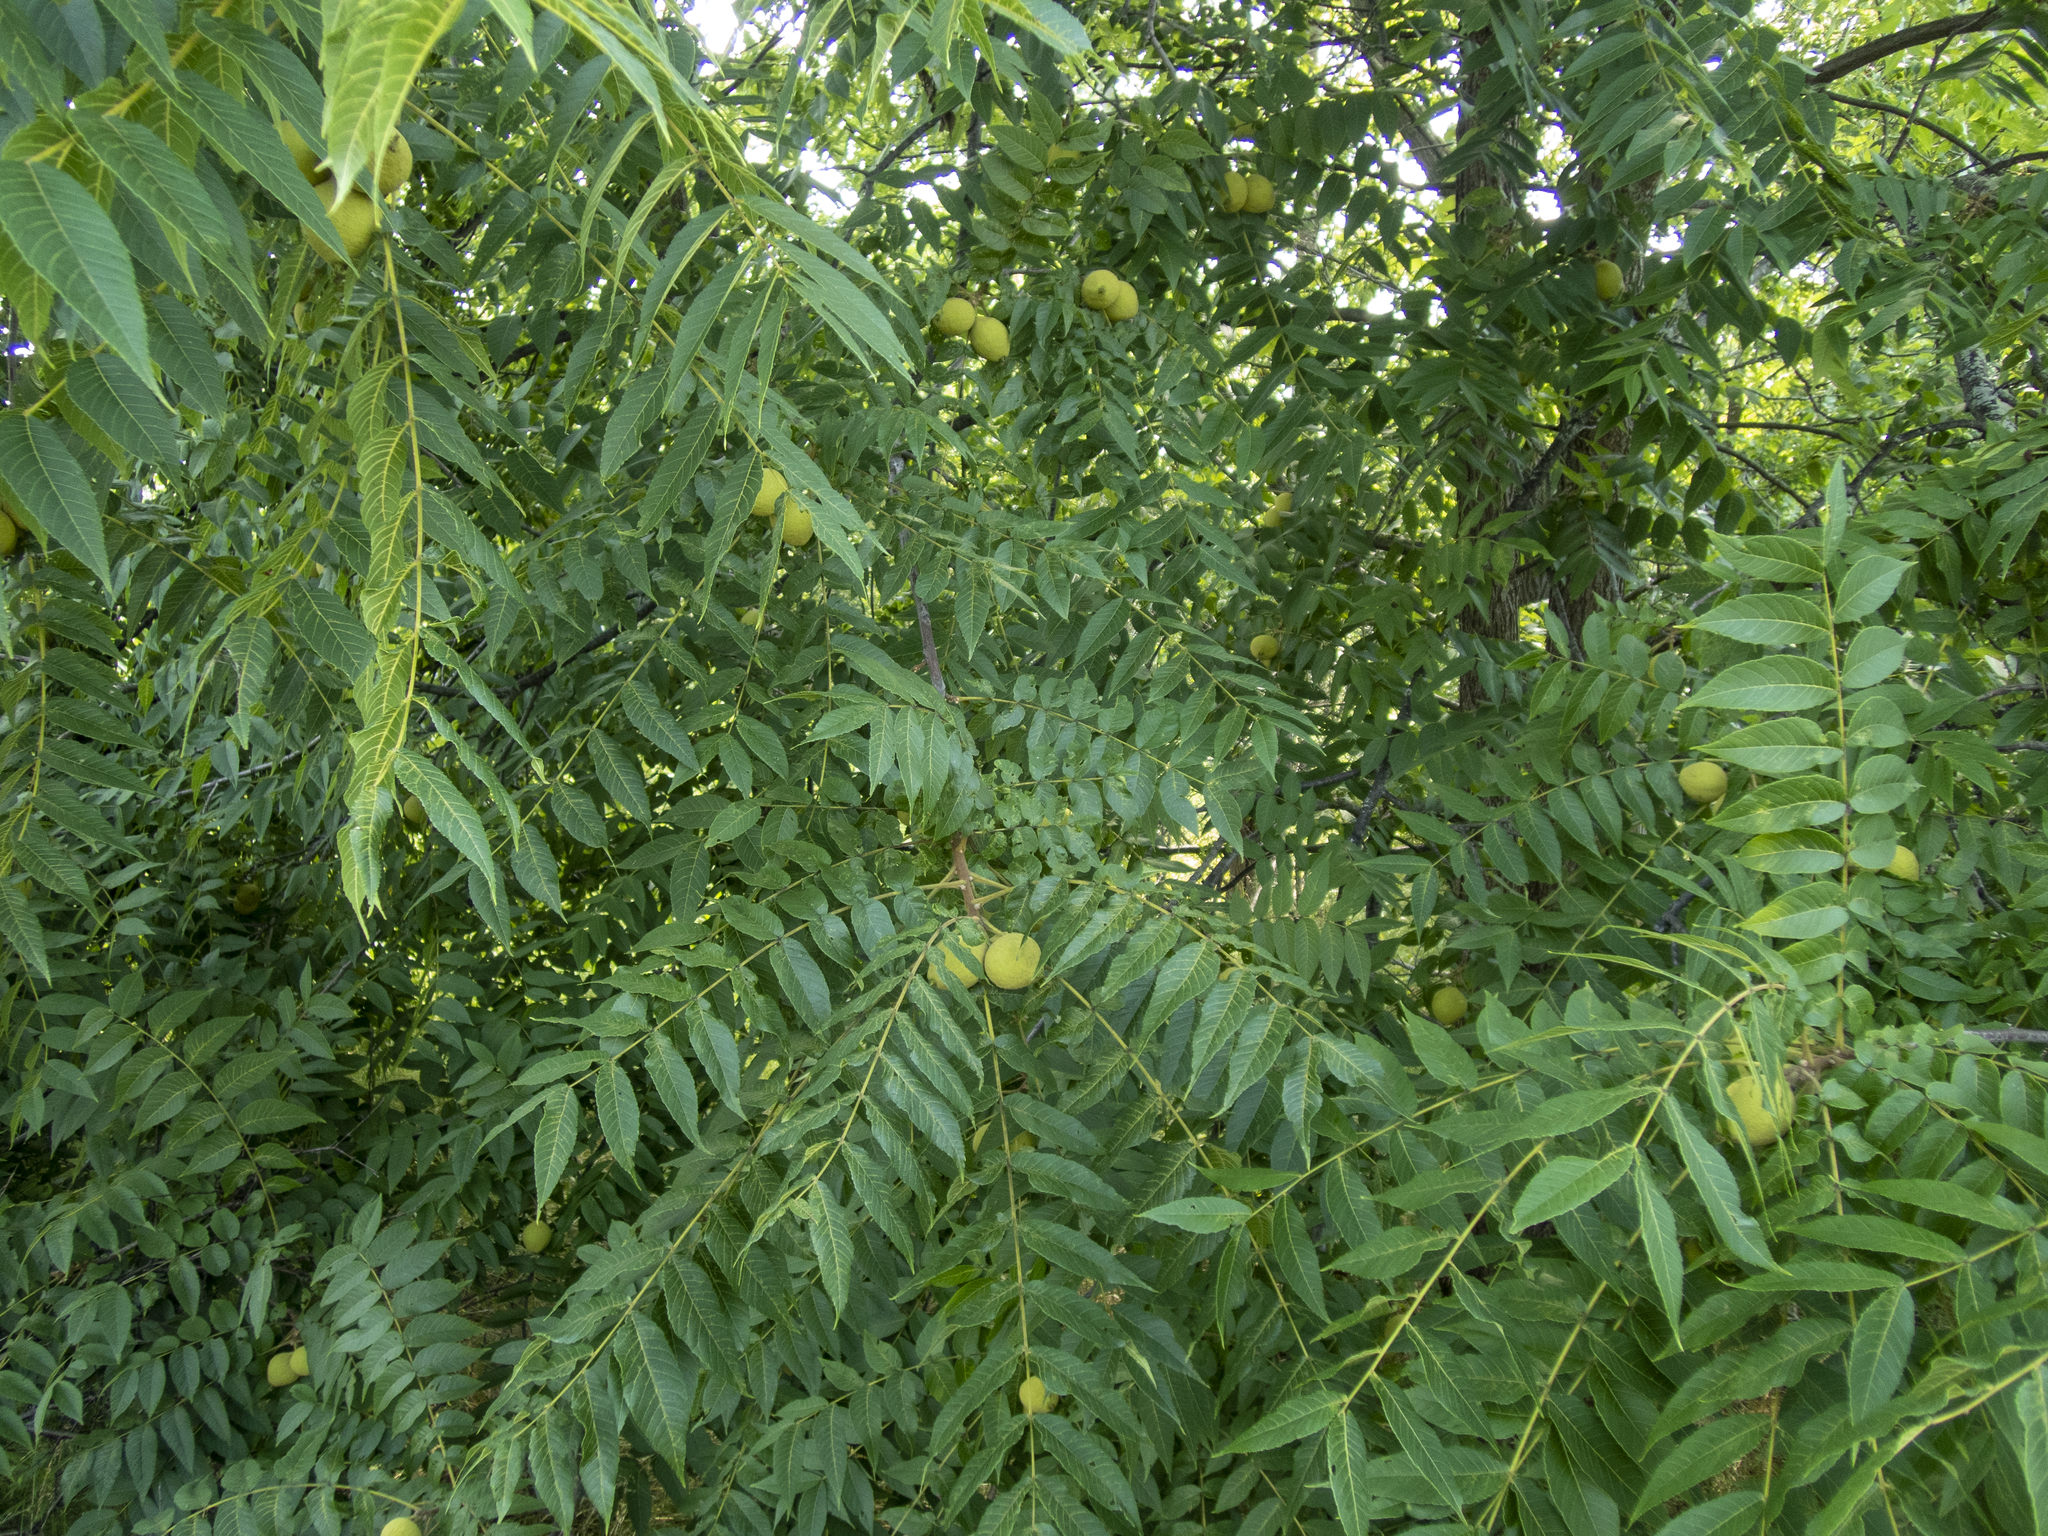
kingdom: Plantae
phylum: Tracheophyta
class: Magnoliopsida
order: Fagales
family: Juglandaceae
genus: Juglans
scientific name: Juglans nigra
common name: Black walnut
